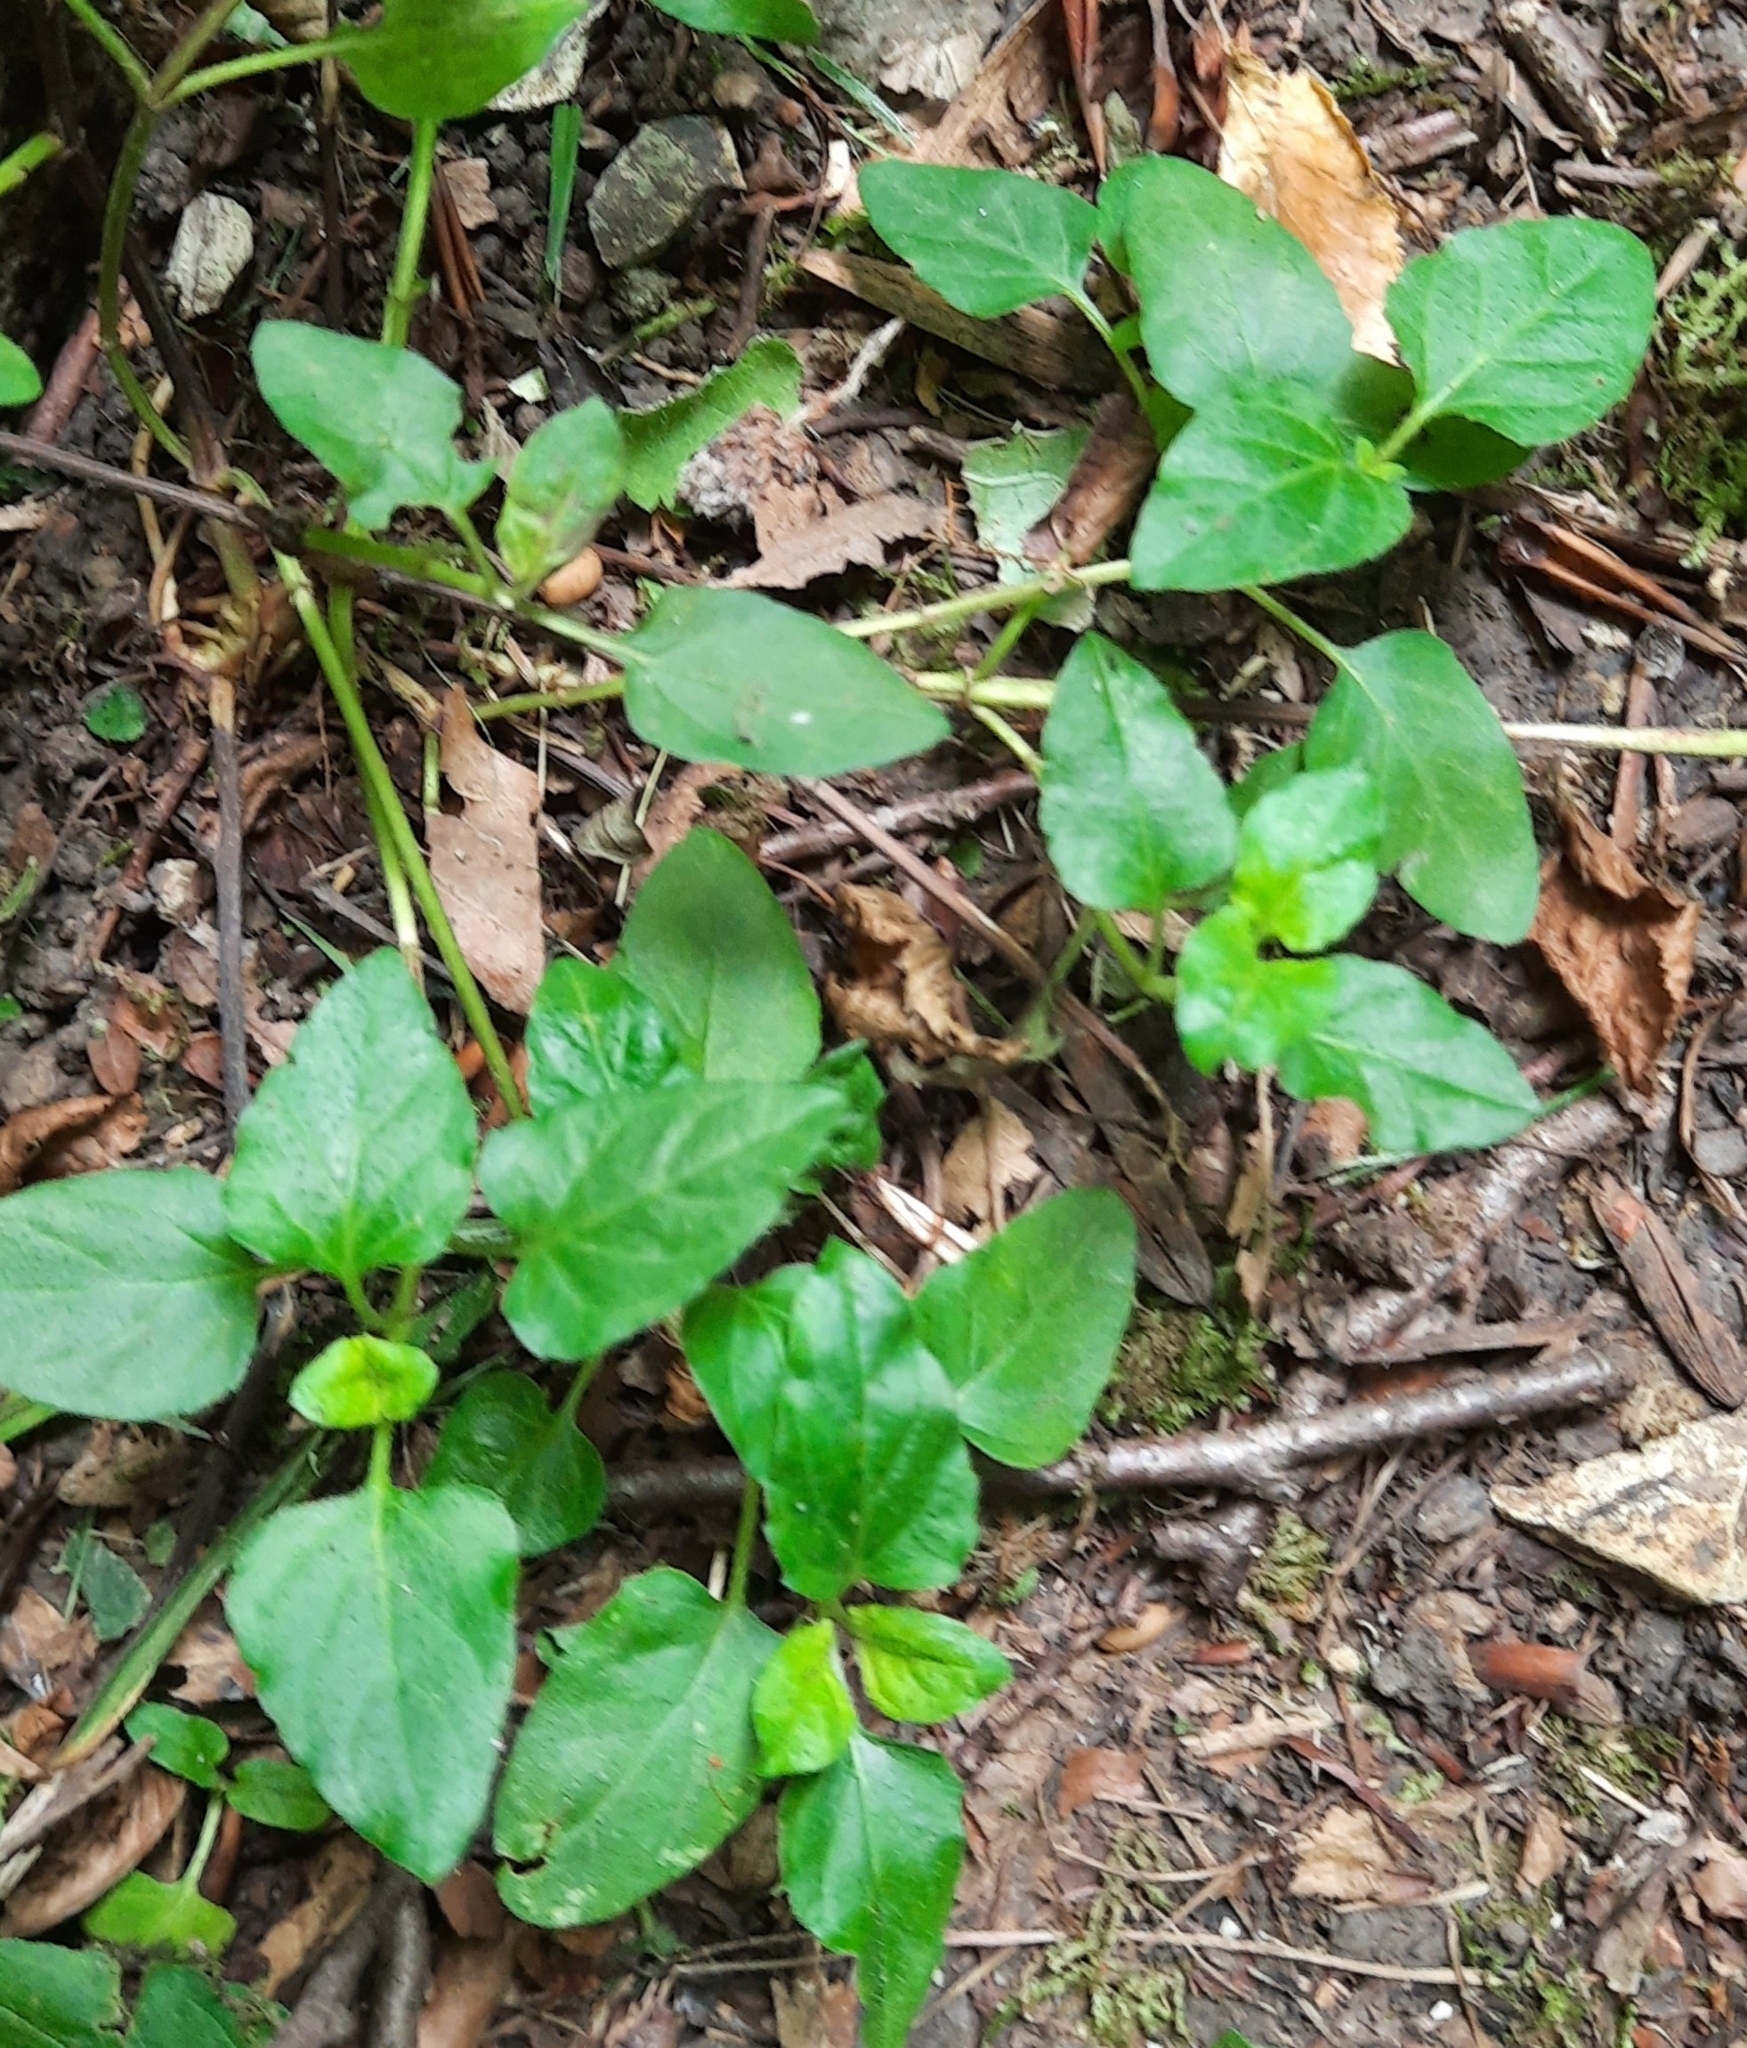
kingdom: Plantae
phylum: Tracheophyta
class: Magnoliopsida
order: Lamiales
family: Lamiaceae
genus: Prunella
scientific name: Prunella vulgaris
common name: Heal-all
